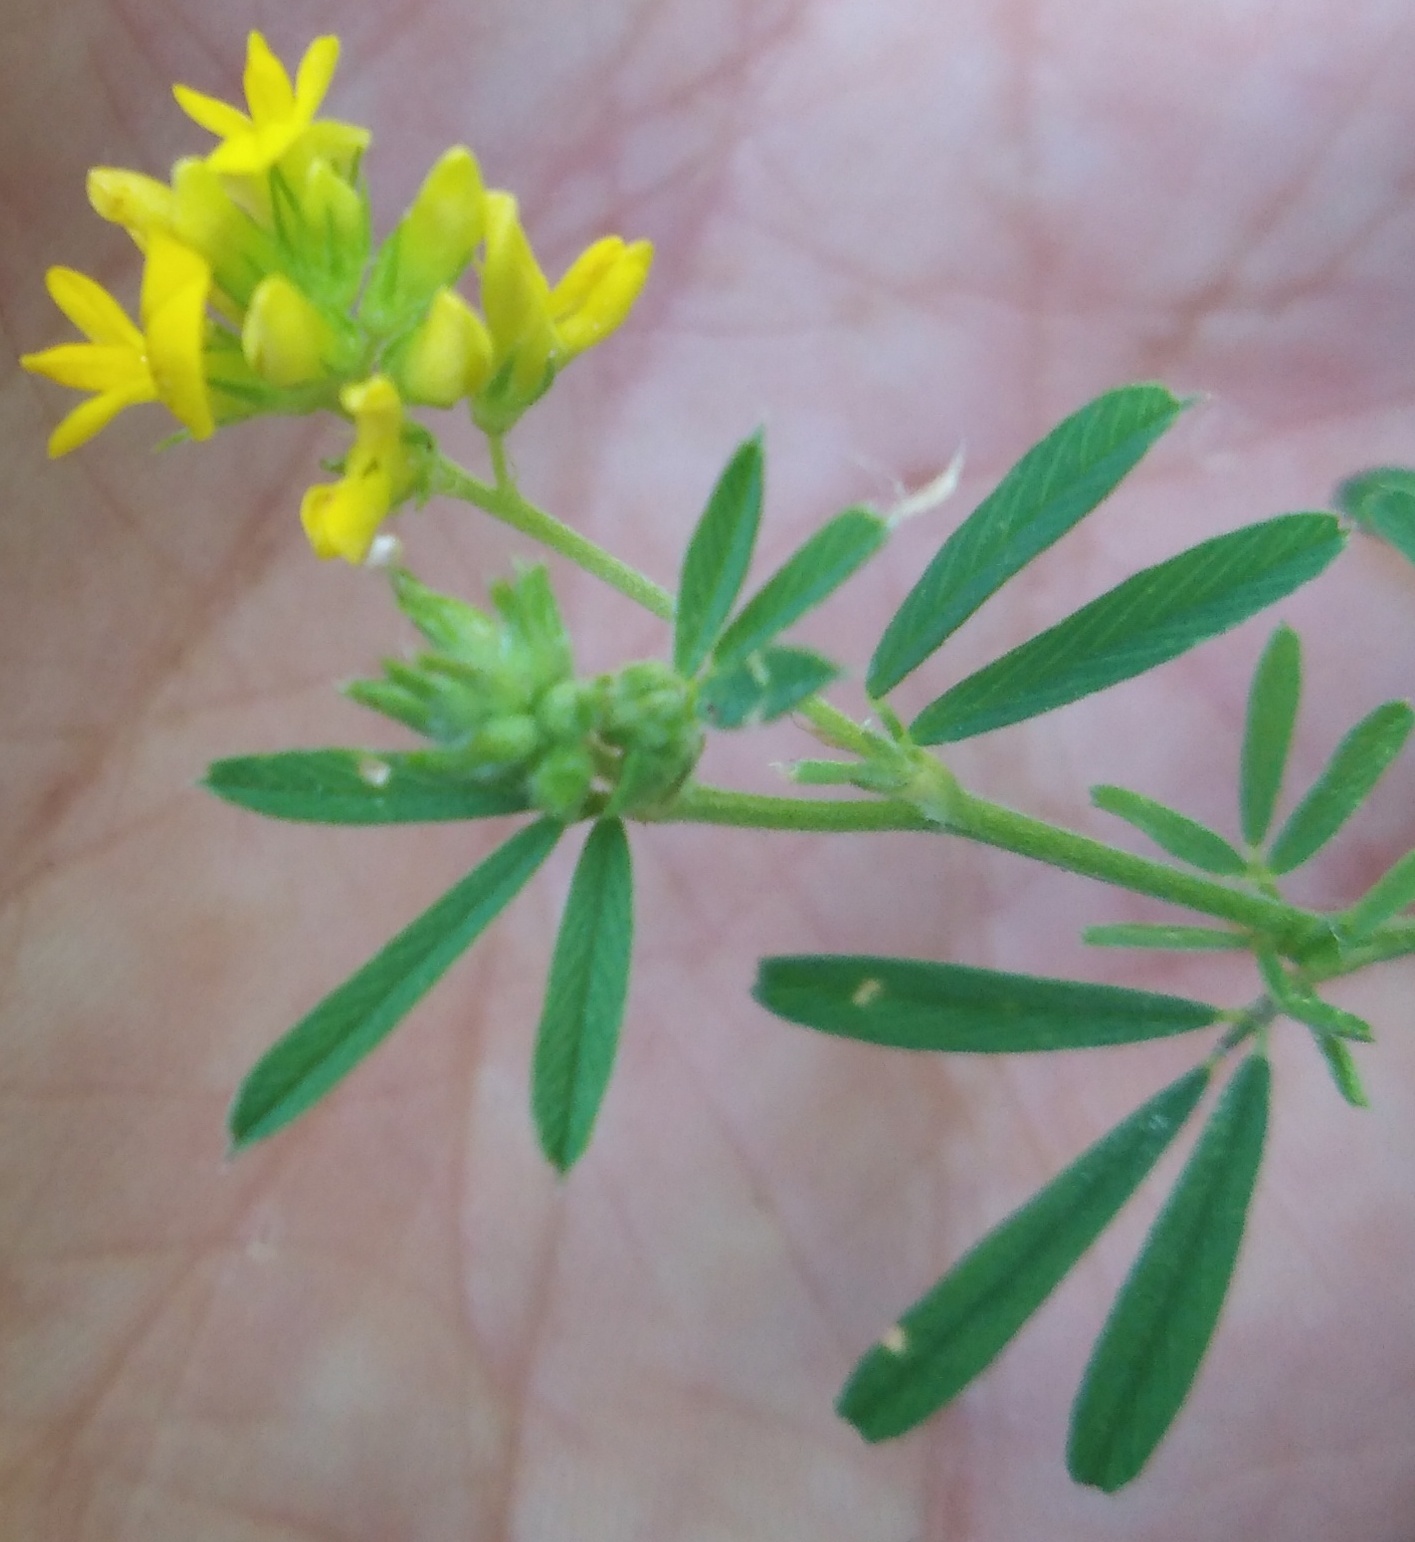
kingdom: Plantae
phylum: Tracheophyta
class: Magnoliopsida
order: Fabales
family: Fabaceae
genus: Medicago
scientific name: Medicago falcata
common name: Sickle medick
